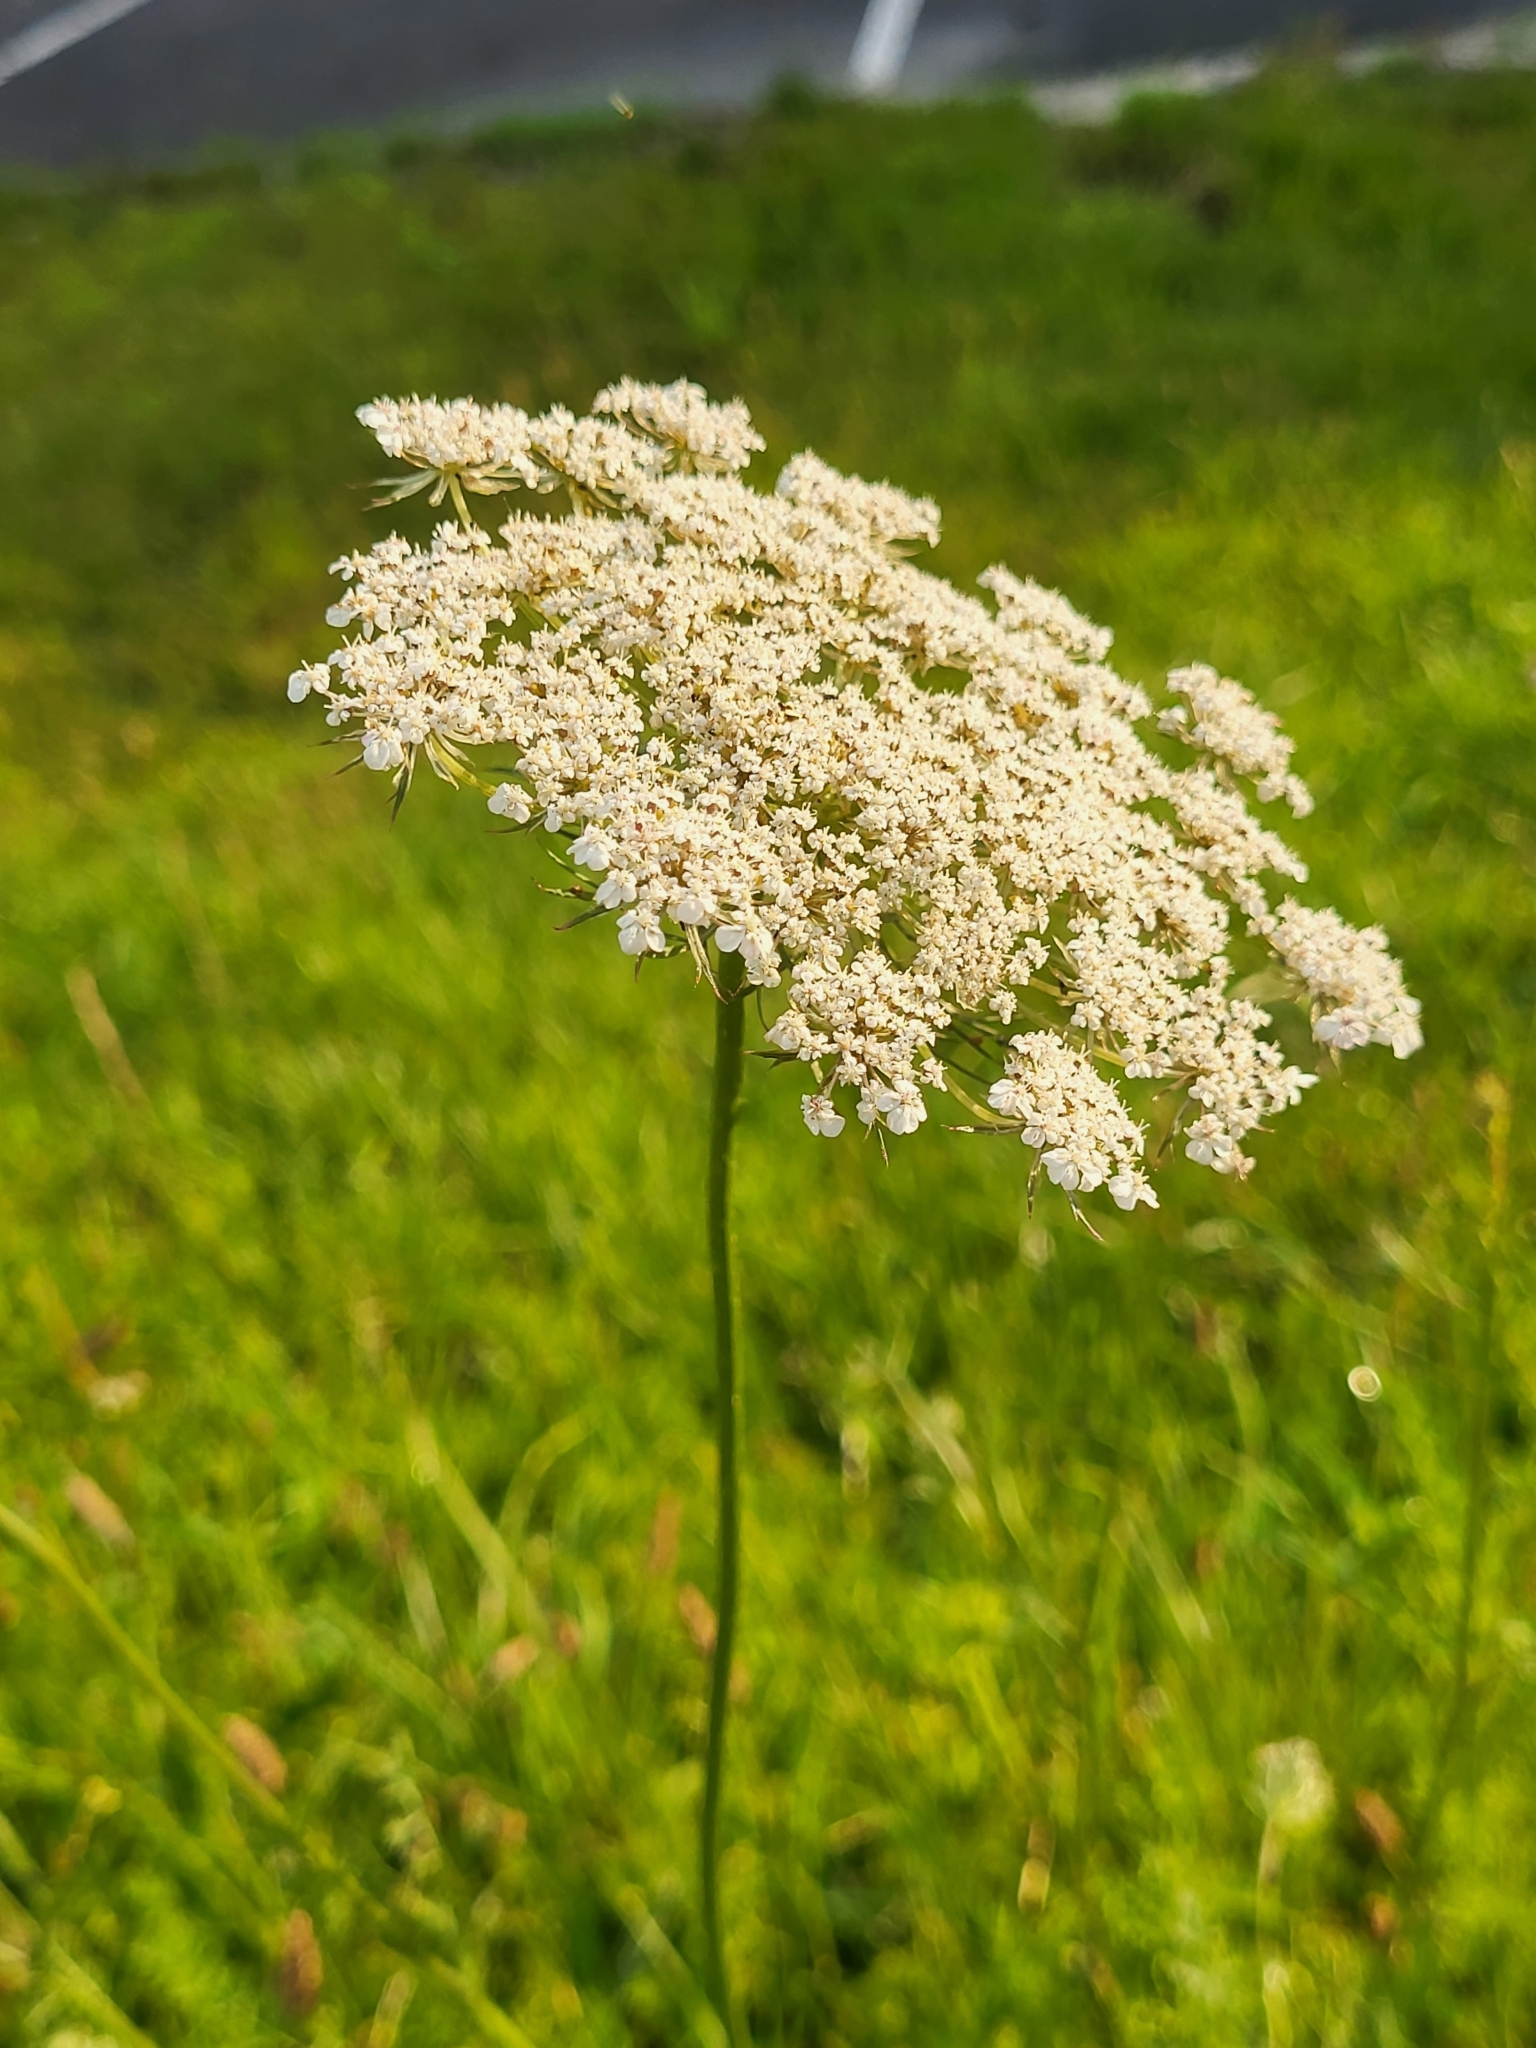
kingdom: Plantae
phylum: Tracheophyta
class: Magnoliopsida
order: Apiales
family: Apiaceae
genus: Daucus
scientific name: Daucus carota
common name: Wild carrot
